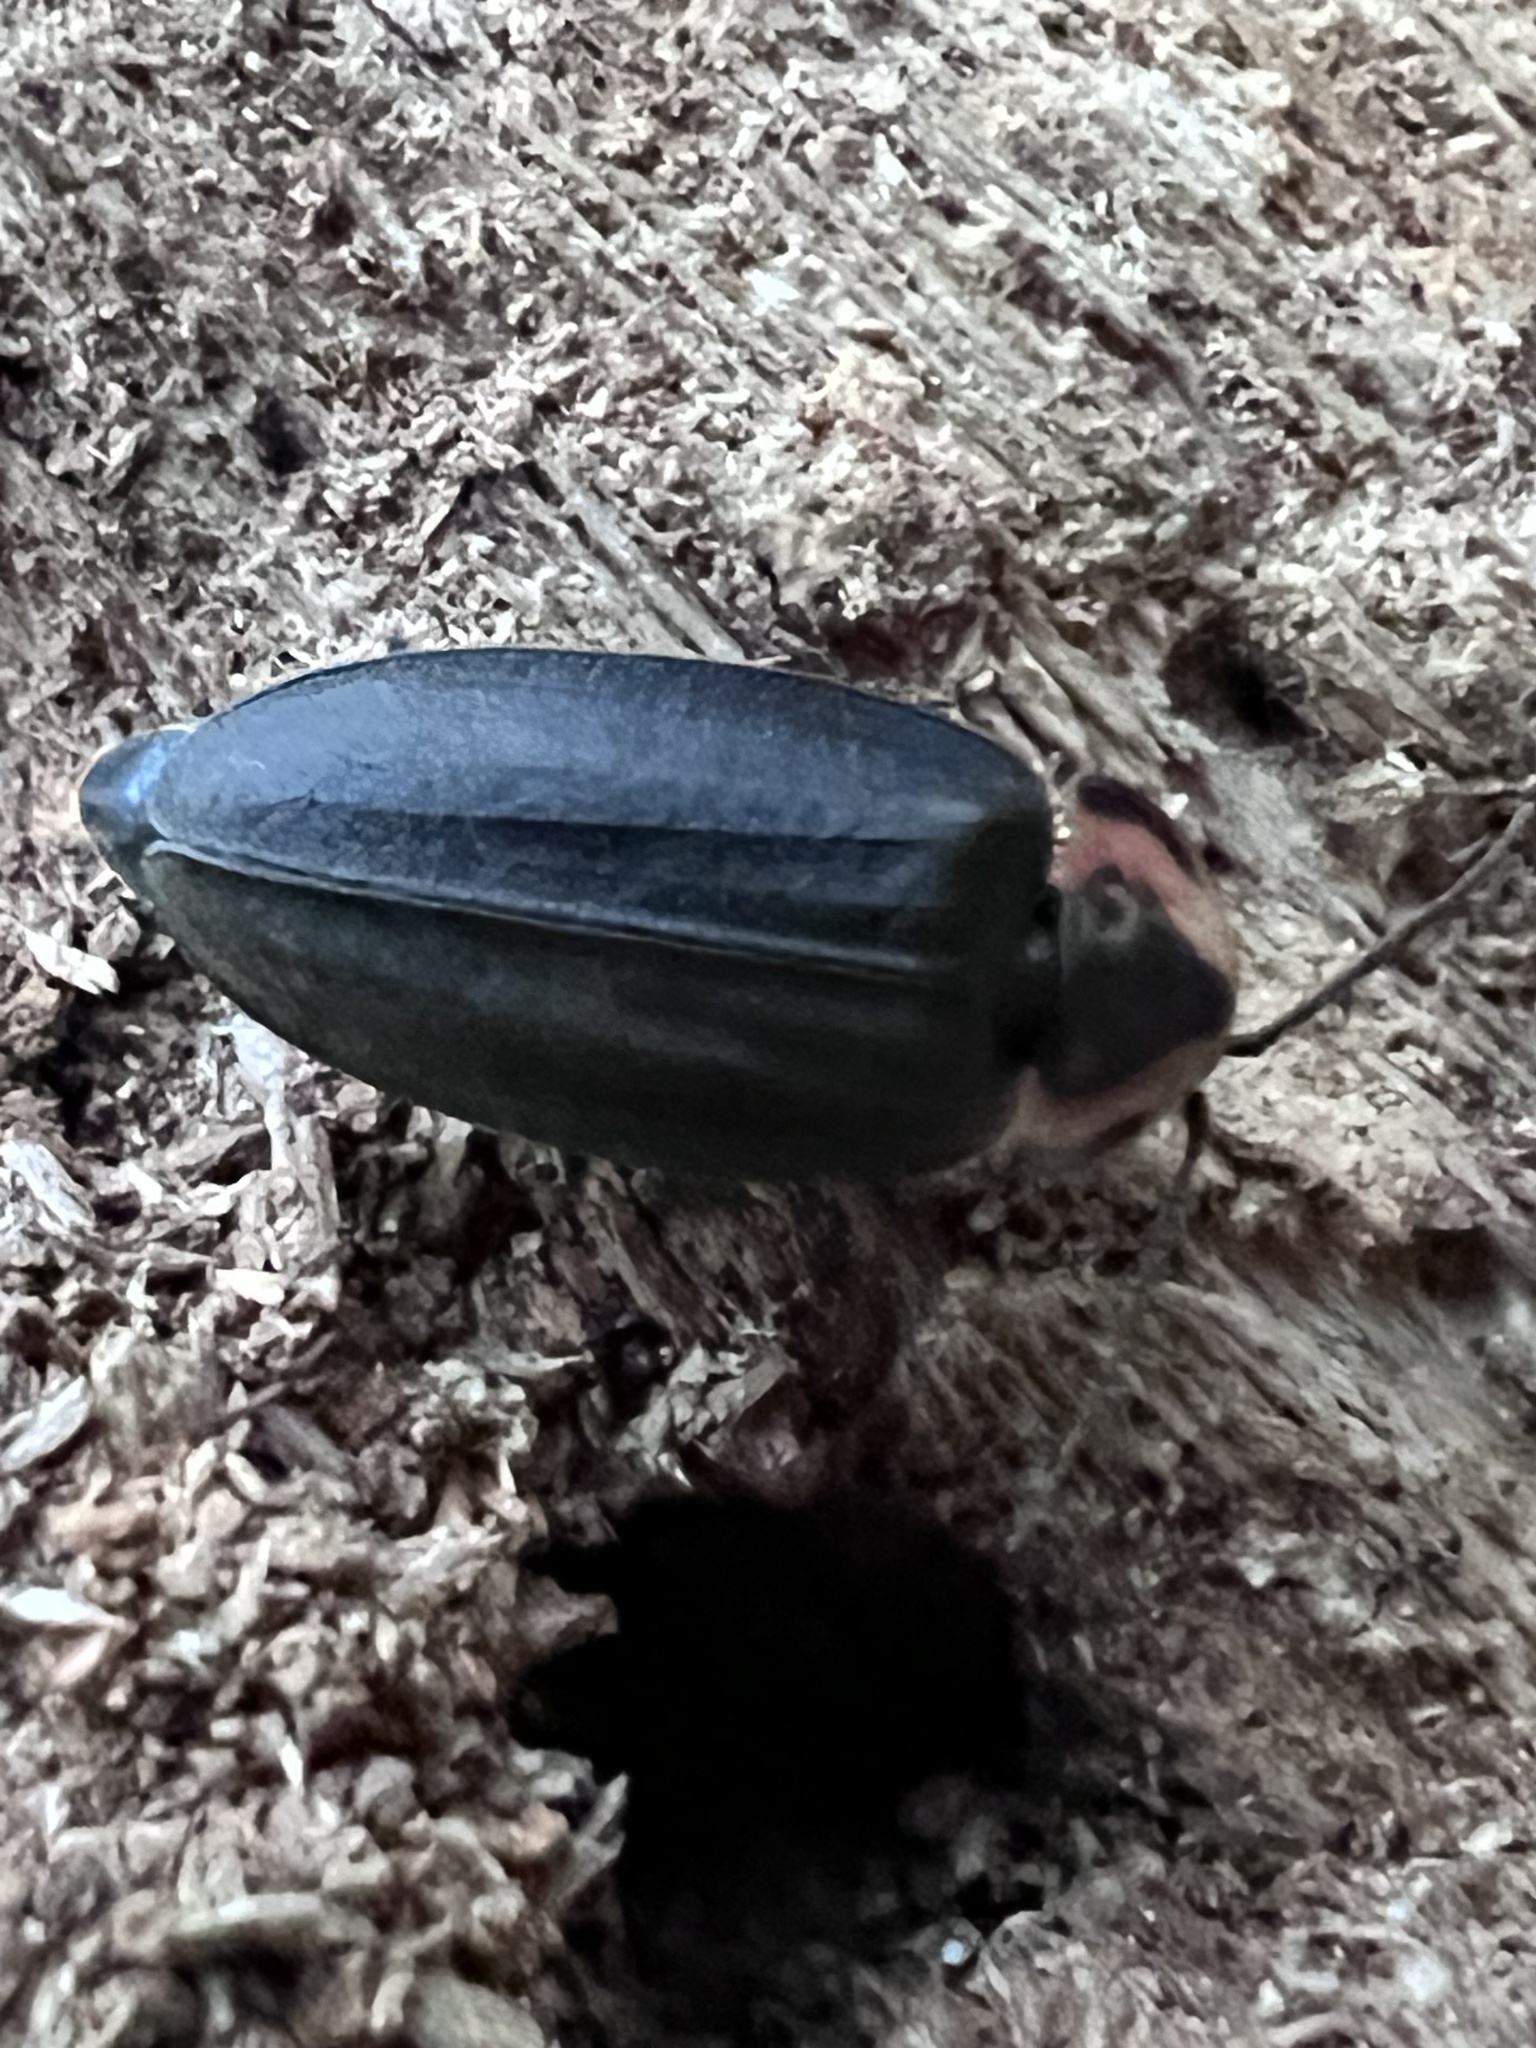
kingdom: Animalia
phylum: Arthropoda
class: Insecta
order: Coleoptera
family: Lampyridae
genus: Photinus
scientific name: Photinus corrusca
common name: Winter firefly
